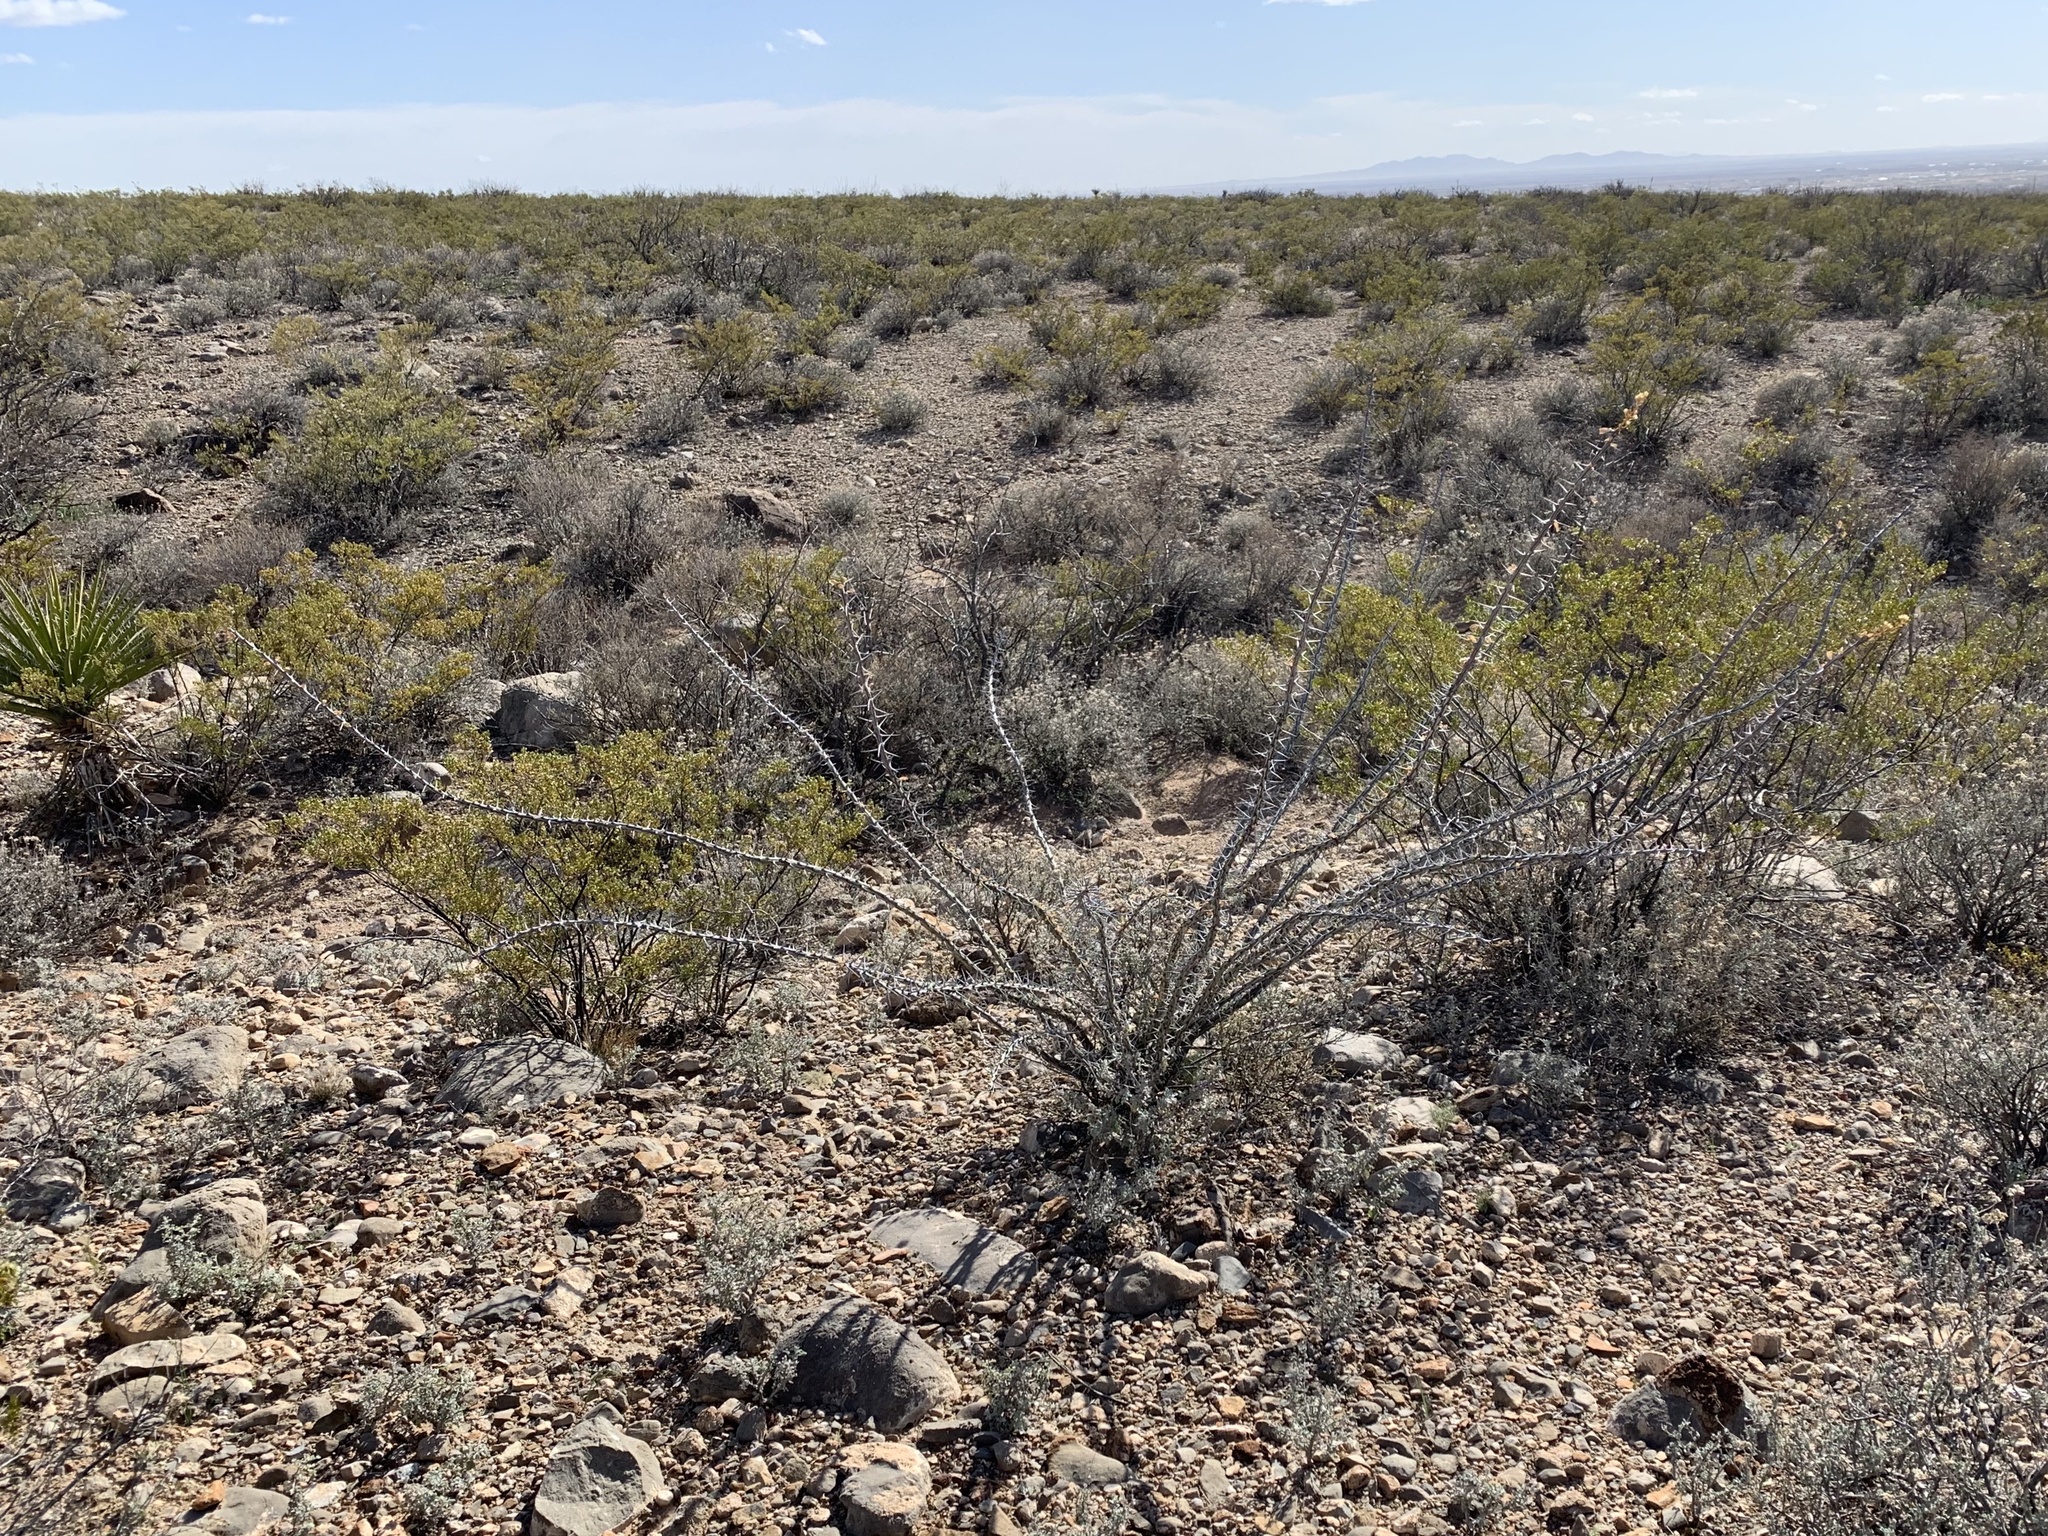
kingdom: Plantae
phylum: Tracheophyta
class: Magnoliopsida
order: Ericales
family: Fouquieriaceae
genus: Fouquieria
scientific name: Fouquieria splendens
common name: Vine-cactus
